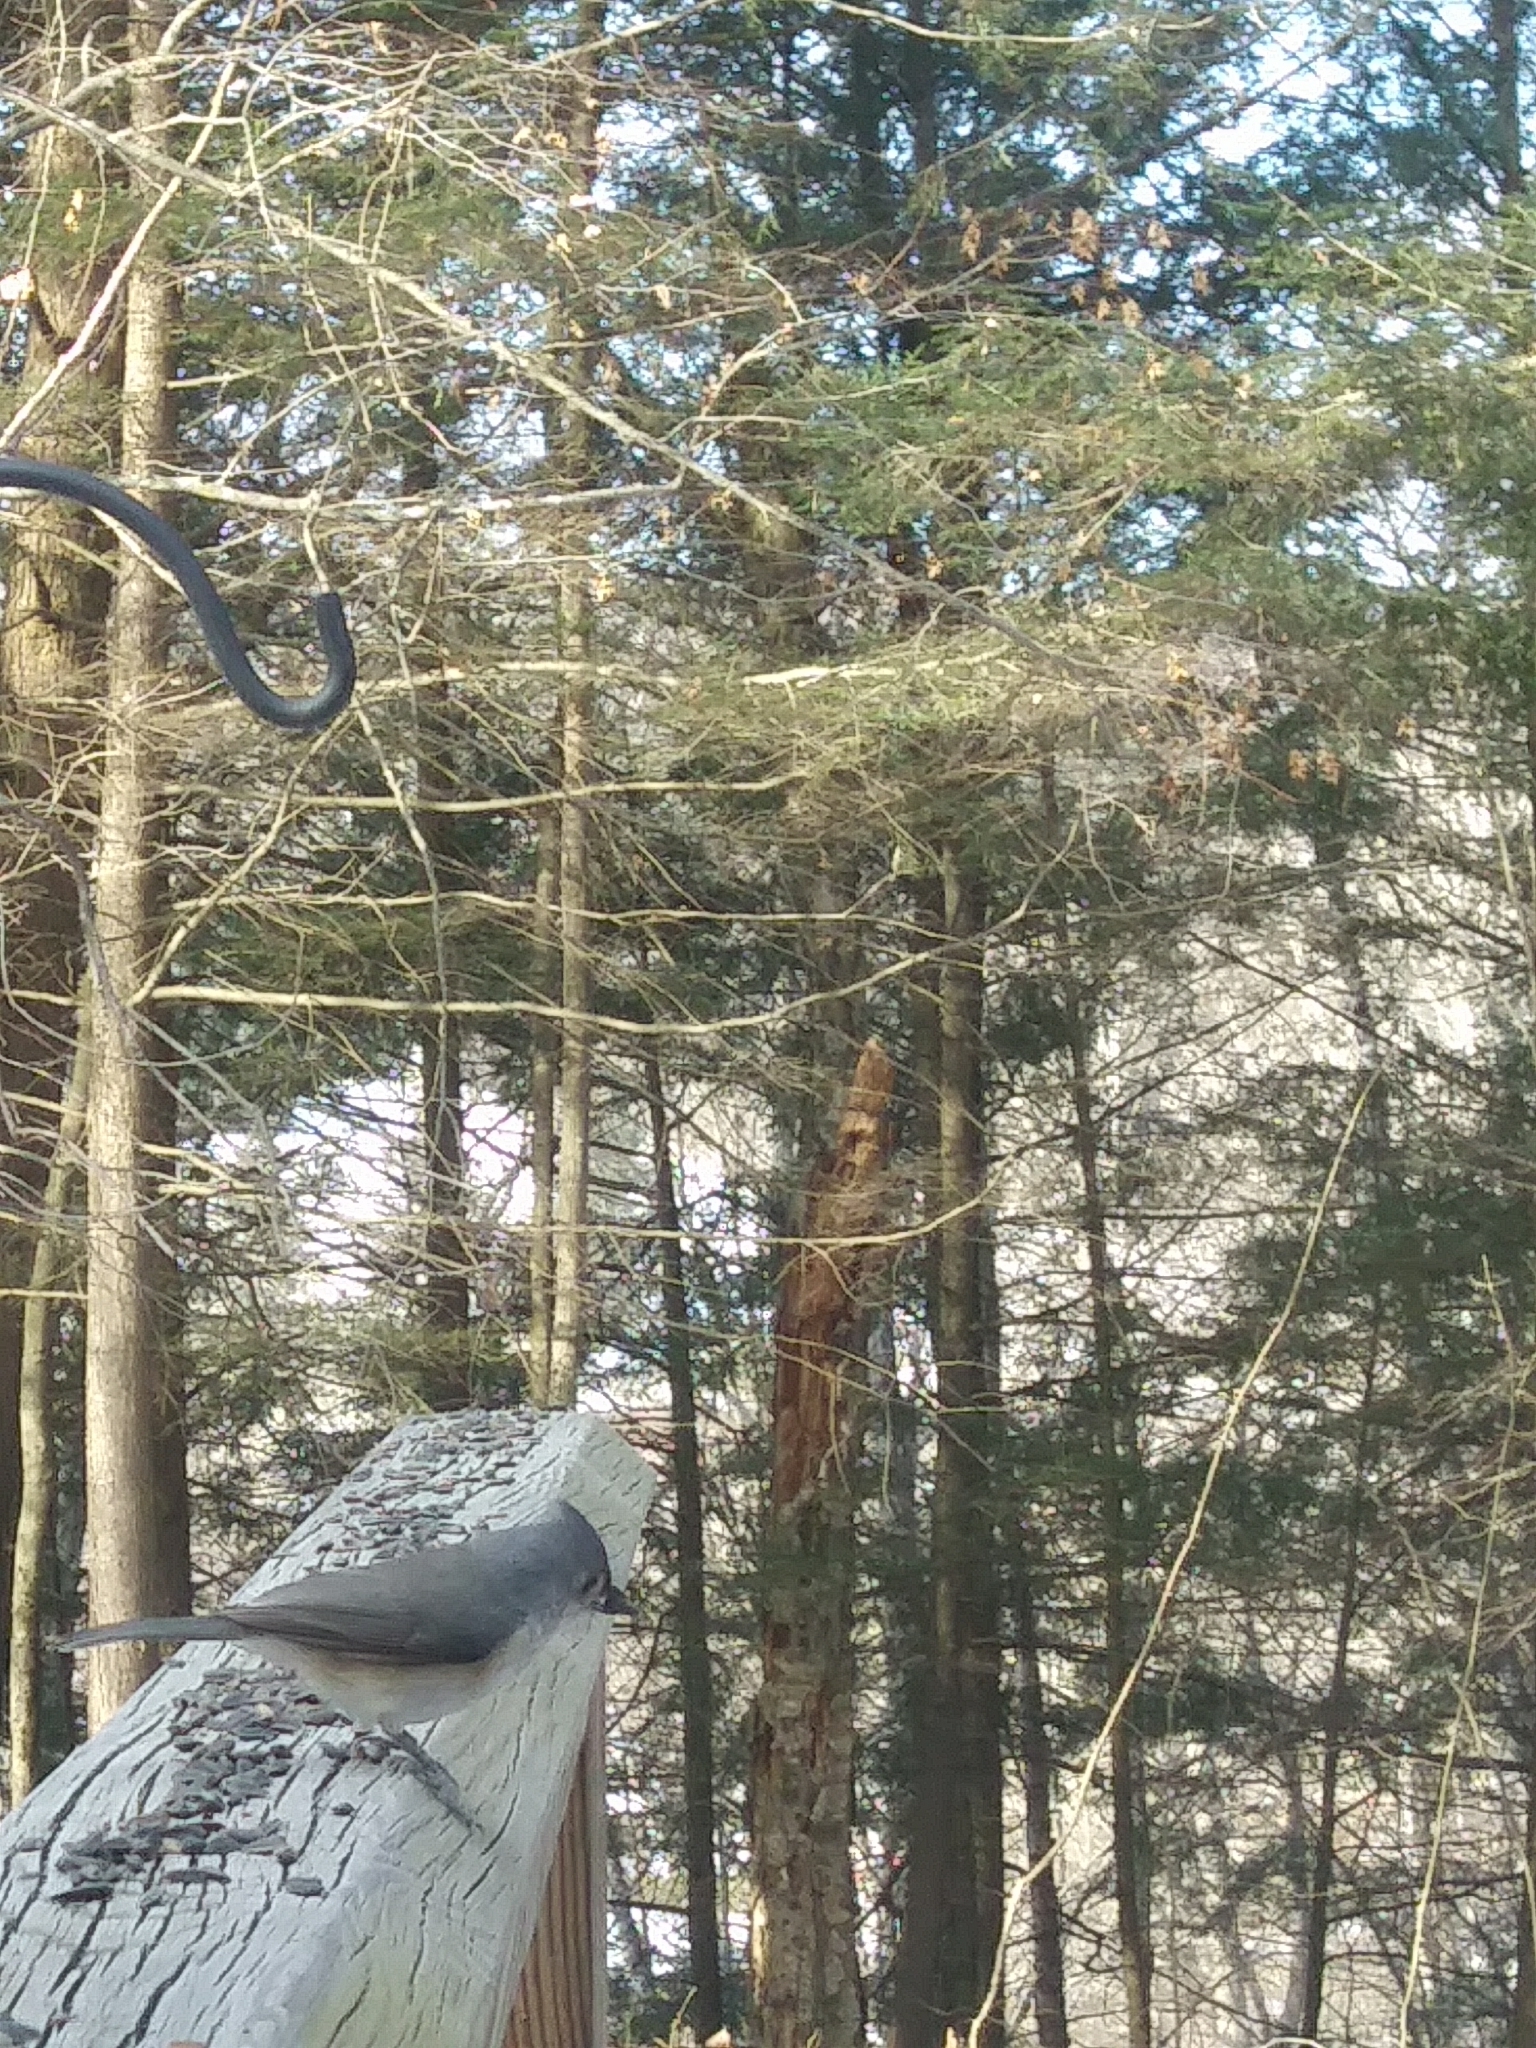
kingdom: Animalia
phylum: Chordata
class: Aves
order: Passeriformes
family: Paridae
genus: Baeolophus
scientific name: Baeolophus bicolor
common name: Tufted titmouse
